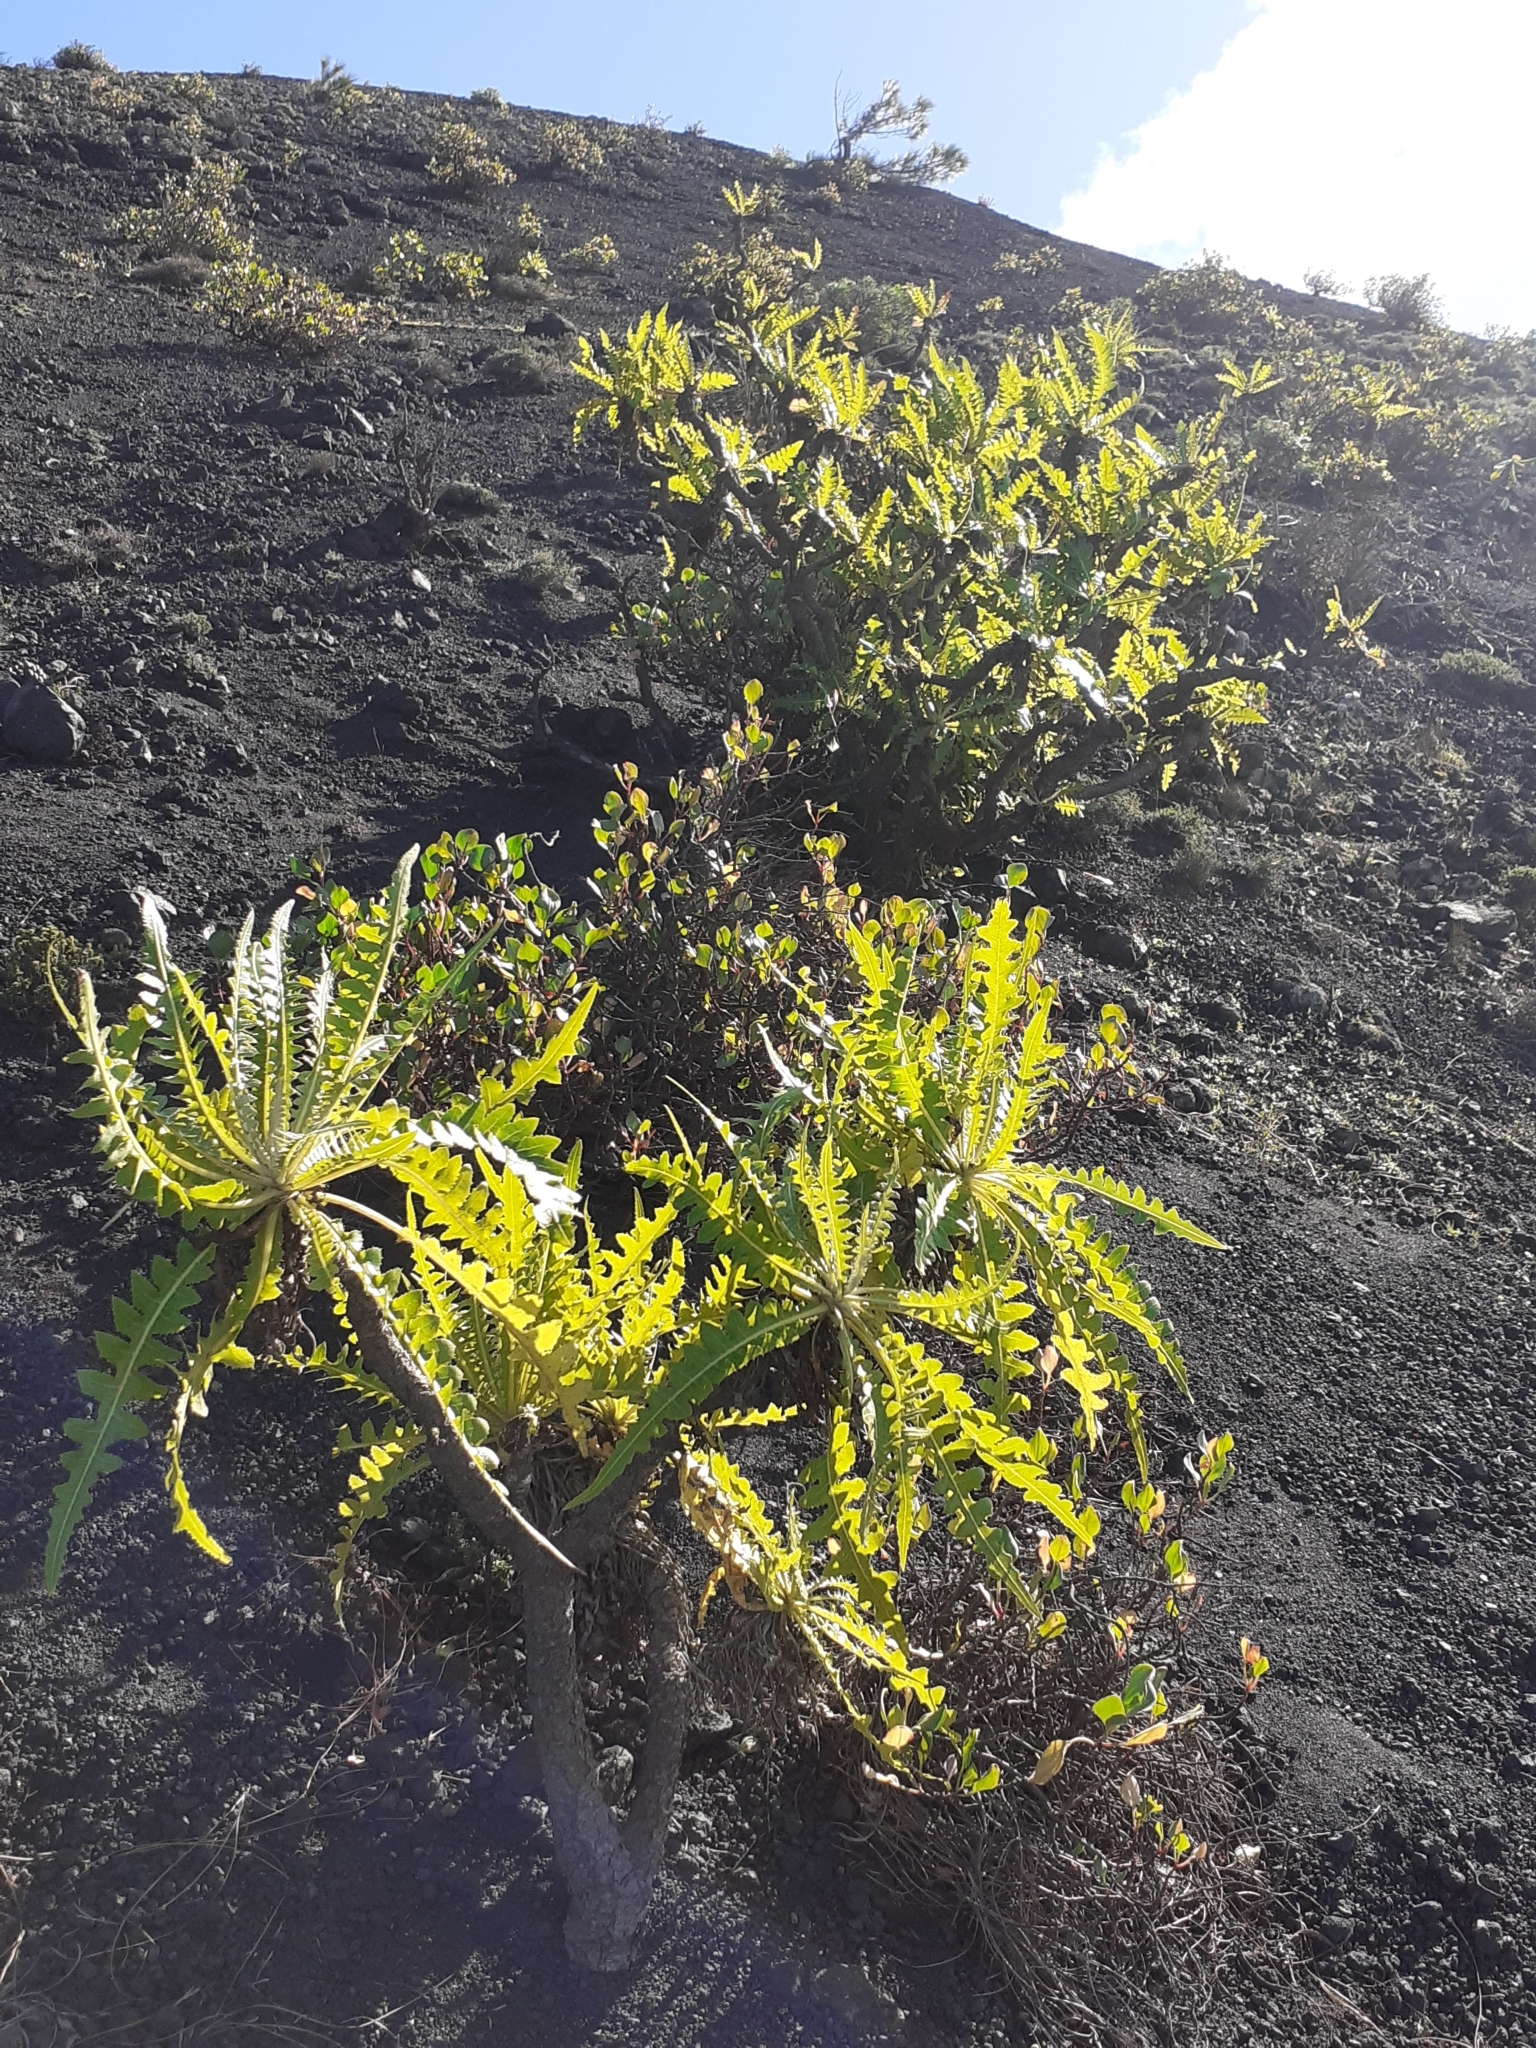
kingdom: Plantae
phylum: Tracheophyta
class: Magnoliopsida
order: Asterales
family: Asteraceae
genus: Sonchus
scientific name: Sonchus hierrensis
